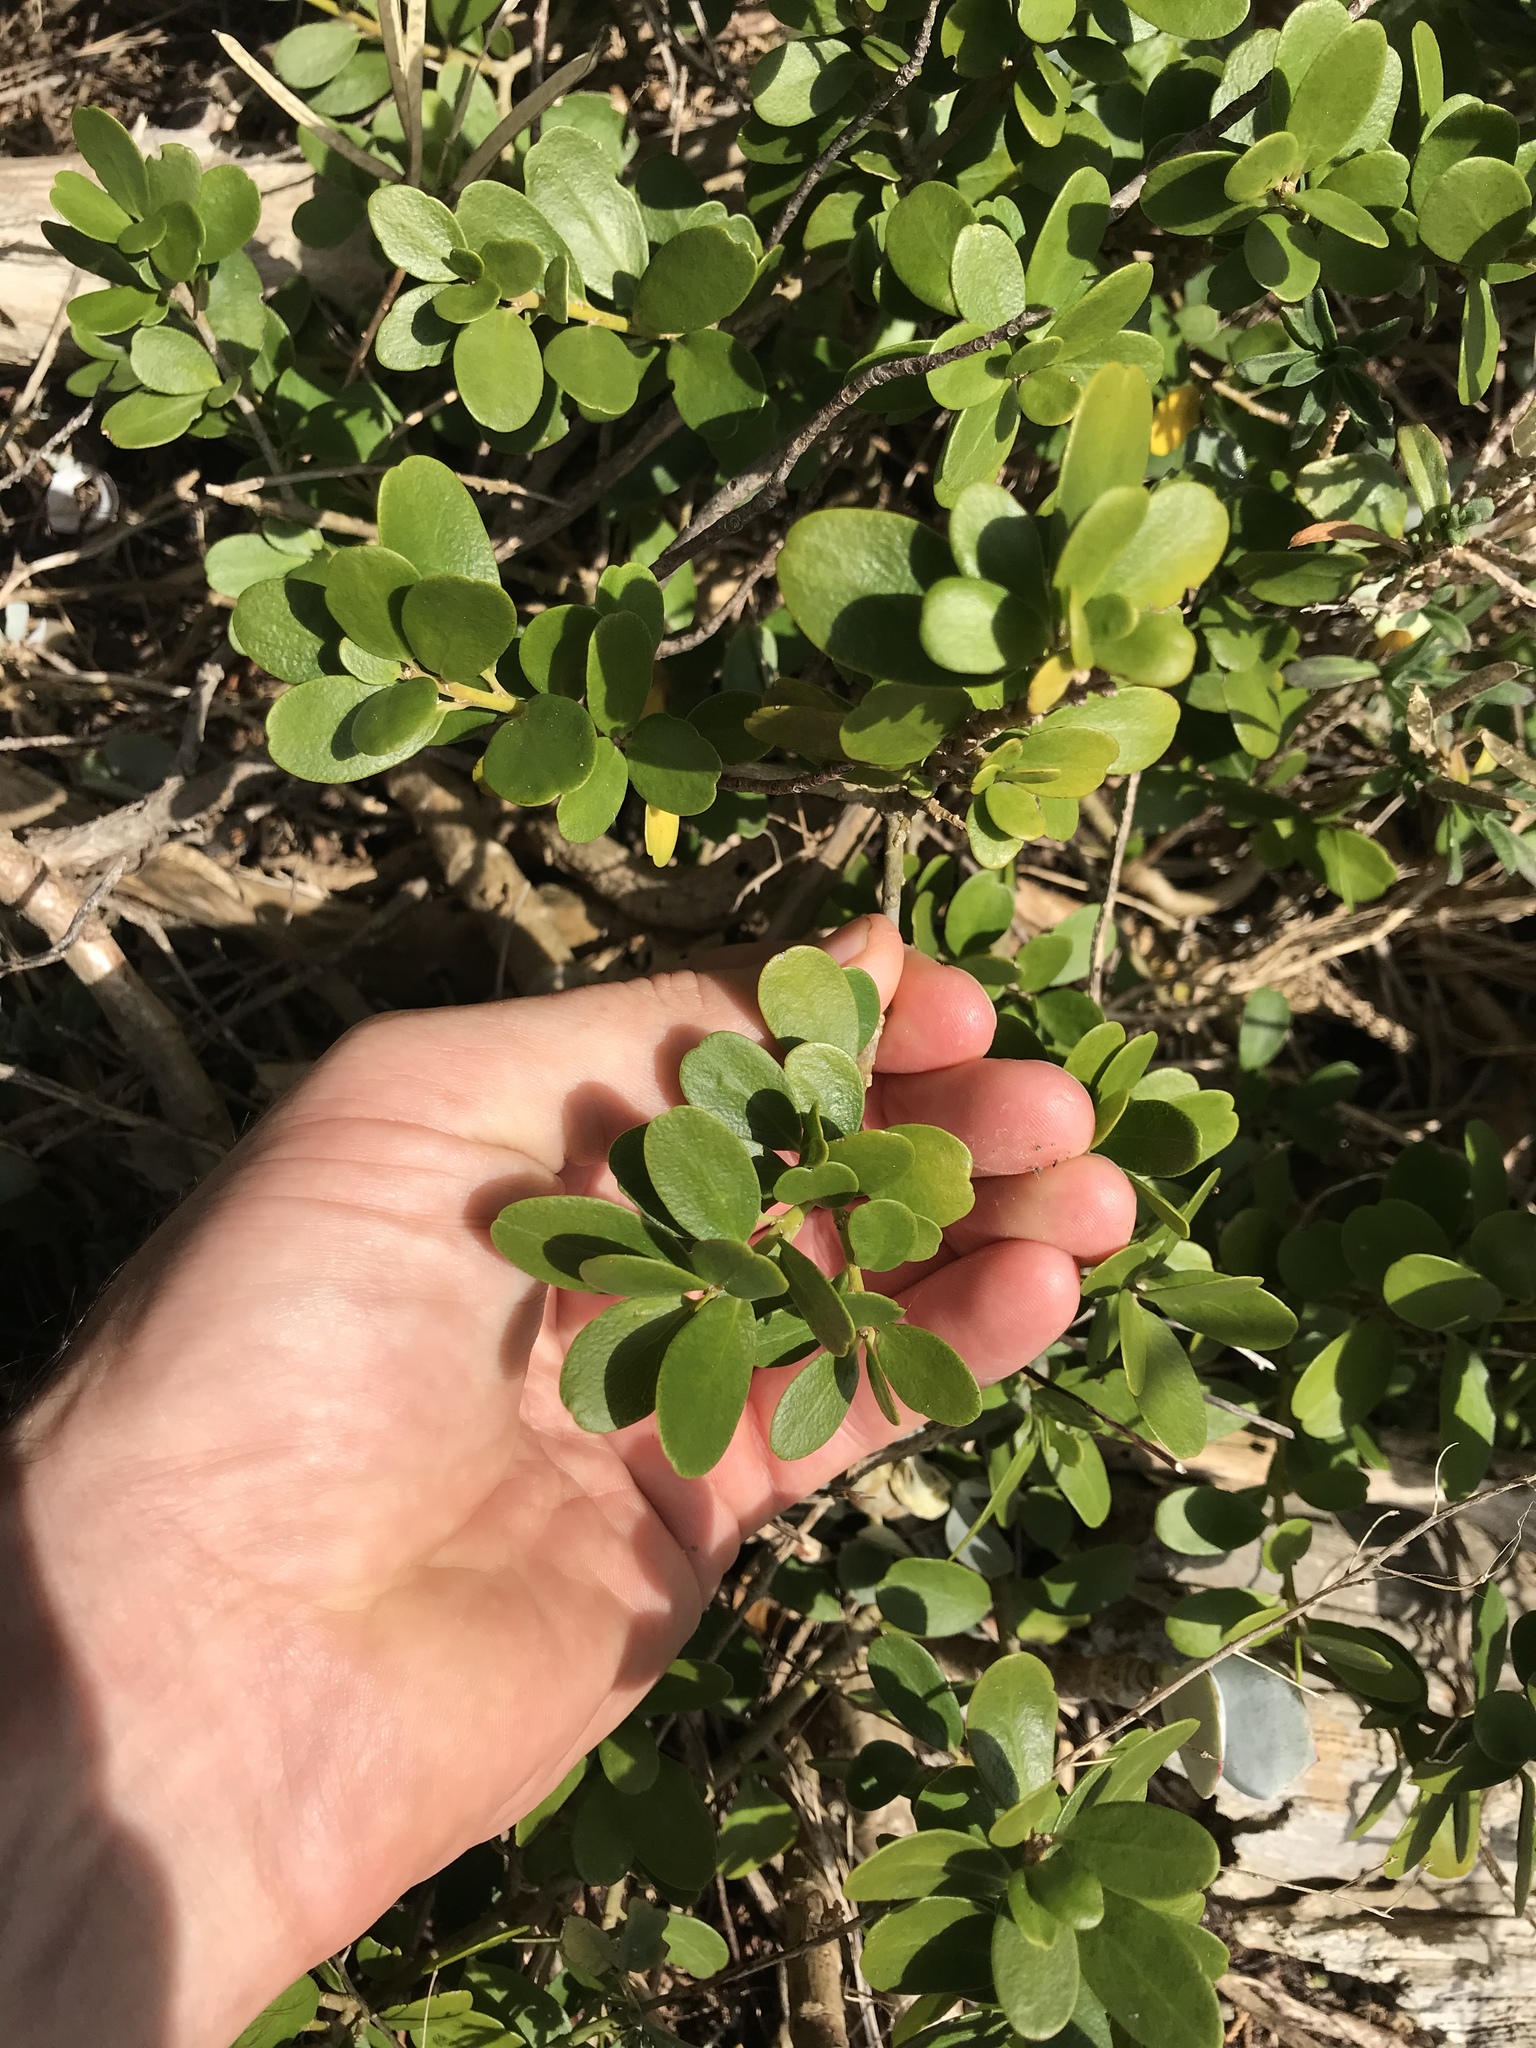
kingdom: Plantae
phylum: Tracheophyta
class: Magnoliopsida
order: Malpighiales
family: Violaceae
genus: Melicytus
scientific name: Melicytus orarius
